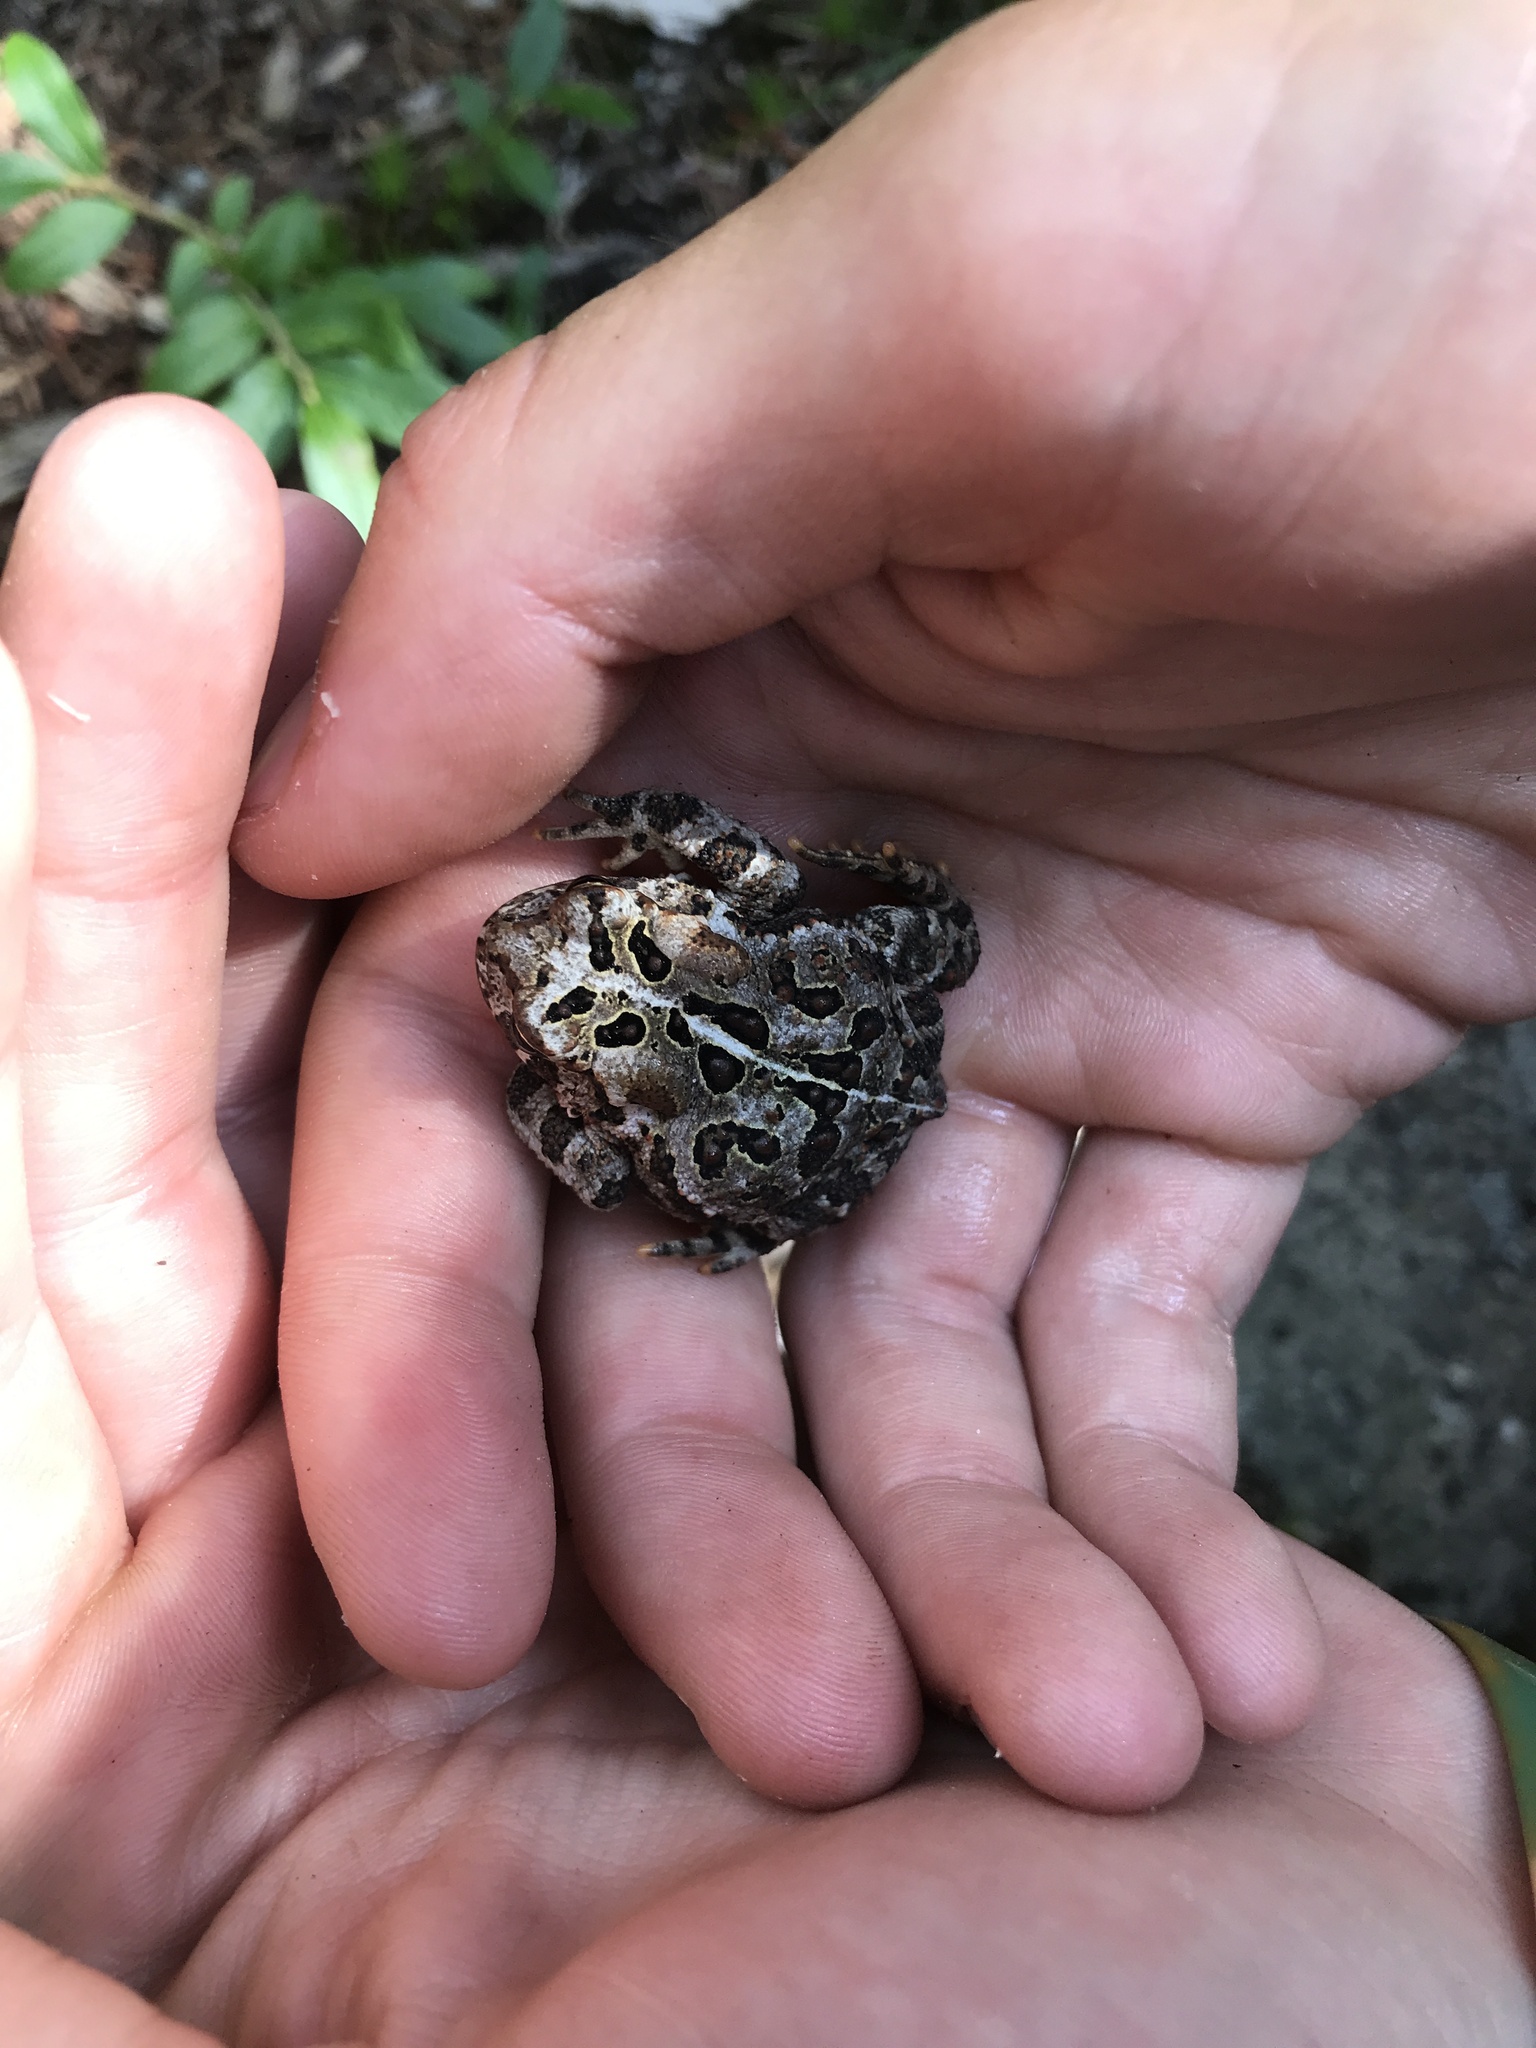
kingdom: Animalia
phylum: Chordata
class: Amphibia
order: Anura
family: Bufonidae
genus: Anaxyrus
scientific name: Anaxyrus americanus
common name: American toad
